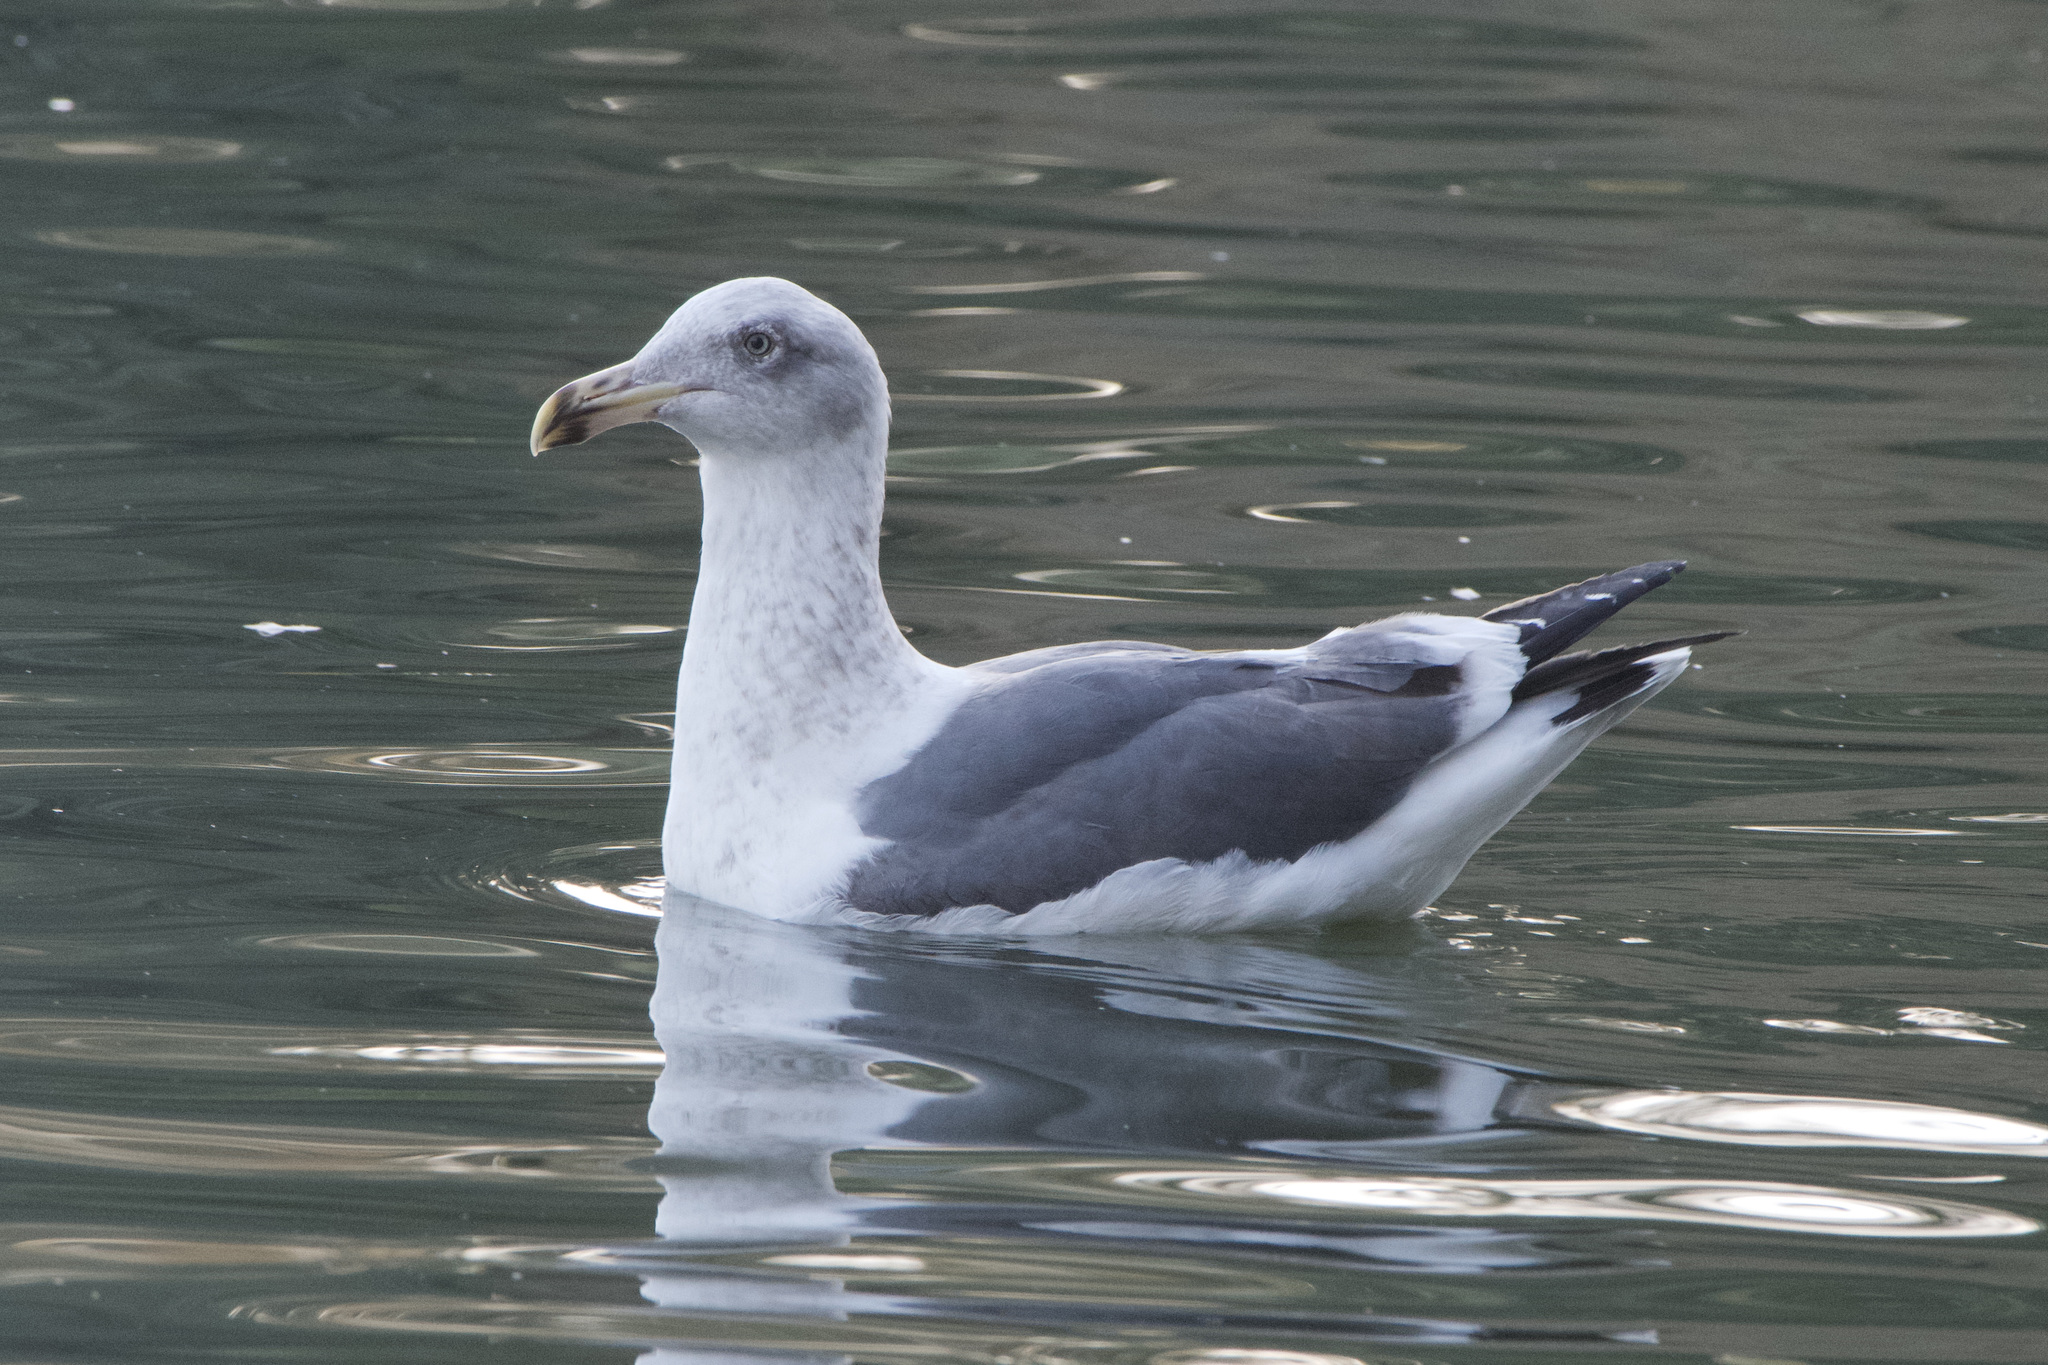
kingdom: Animalia
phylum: Chordata
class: Aves
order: Charadriiformes
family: Laridae
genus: Larus
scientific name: Larus occidentalis
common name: Western gull
